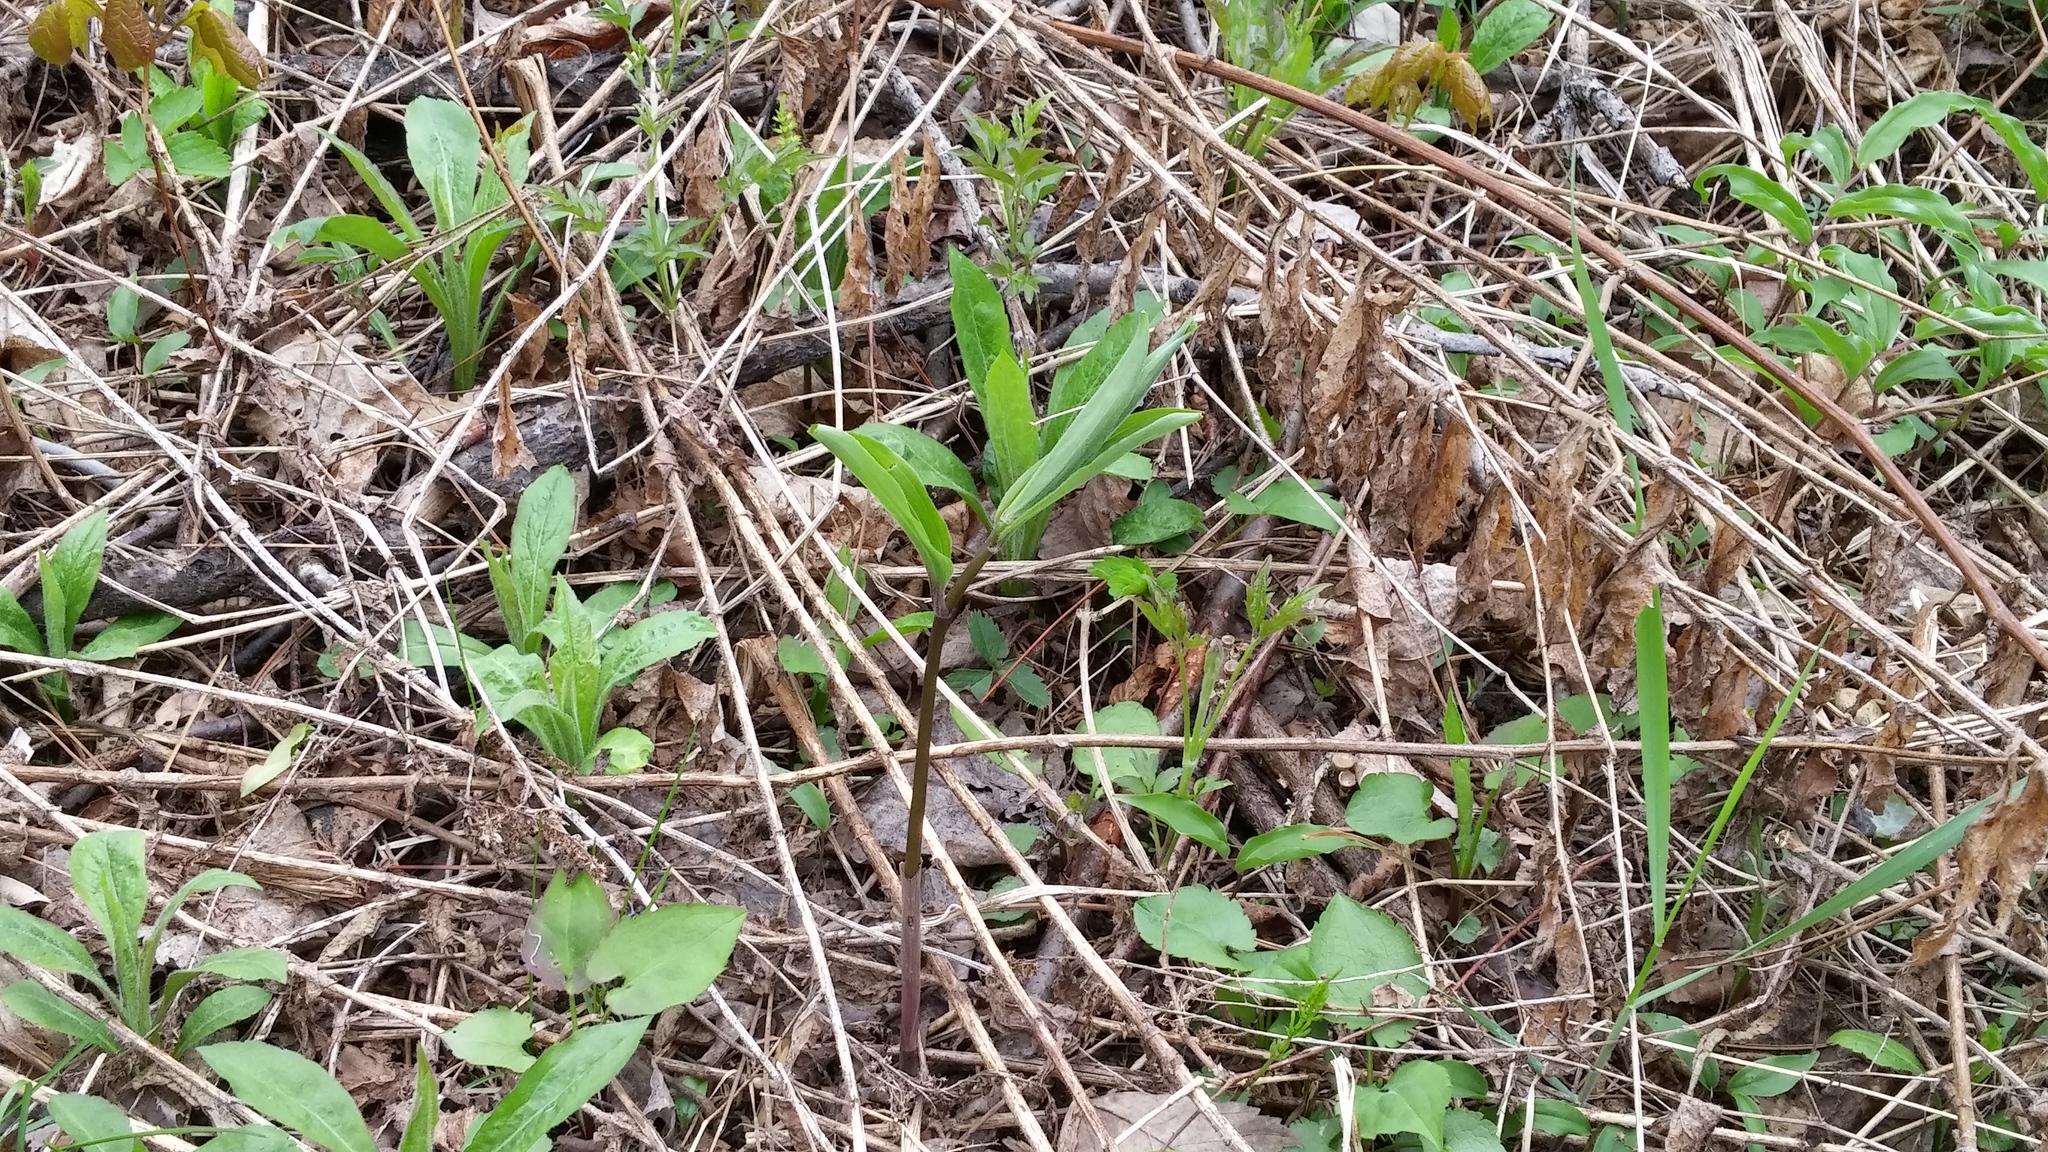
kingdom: Plantae
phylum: Tracheophyta
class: Liliopsida
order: Asparagales
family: Asparagaceae
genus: Maianthemum
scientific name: Maianthemum racemosum
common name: False spikenard
